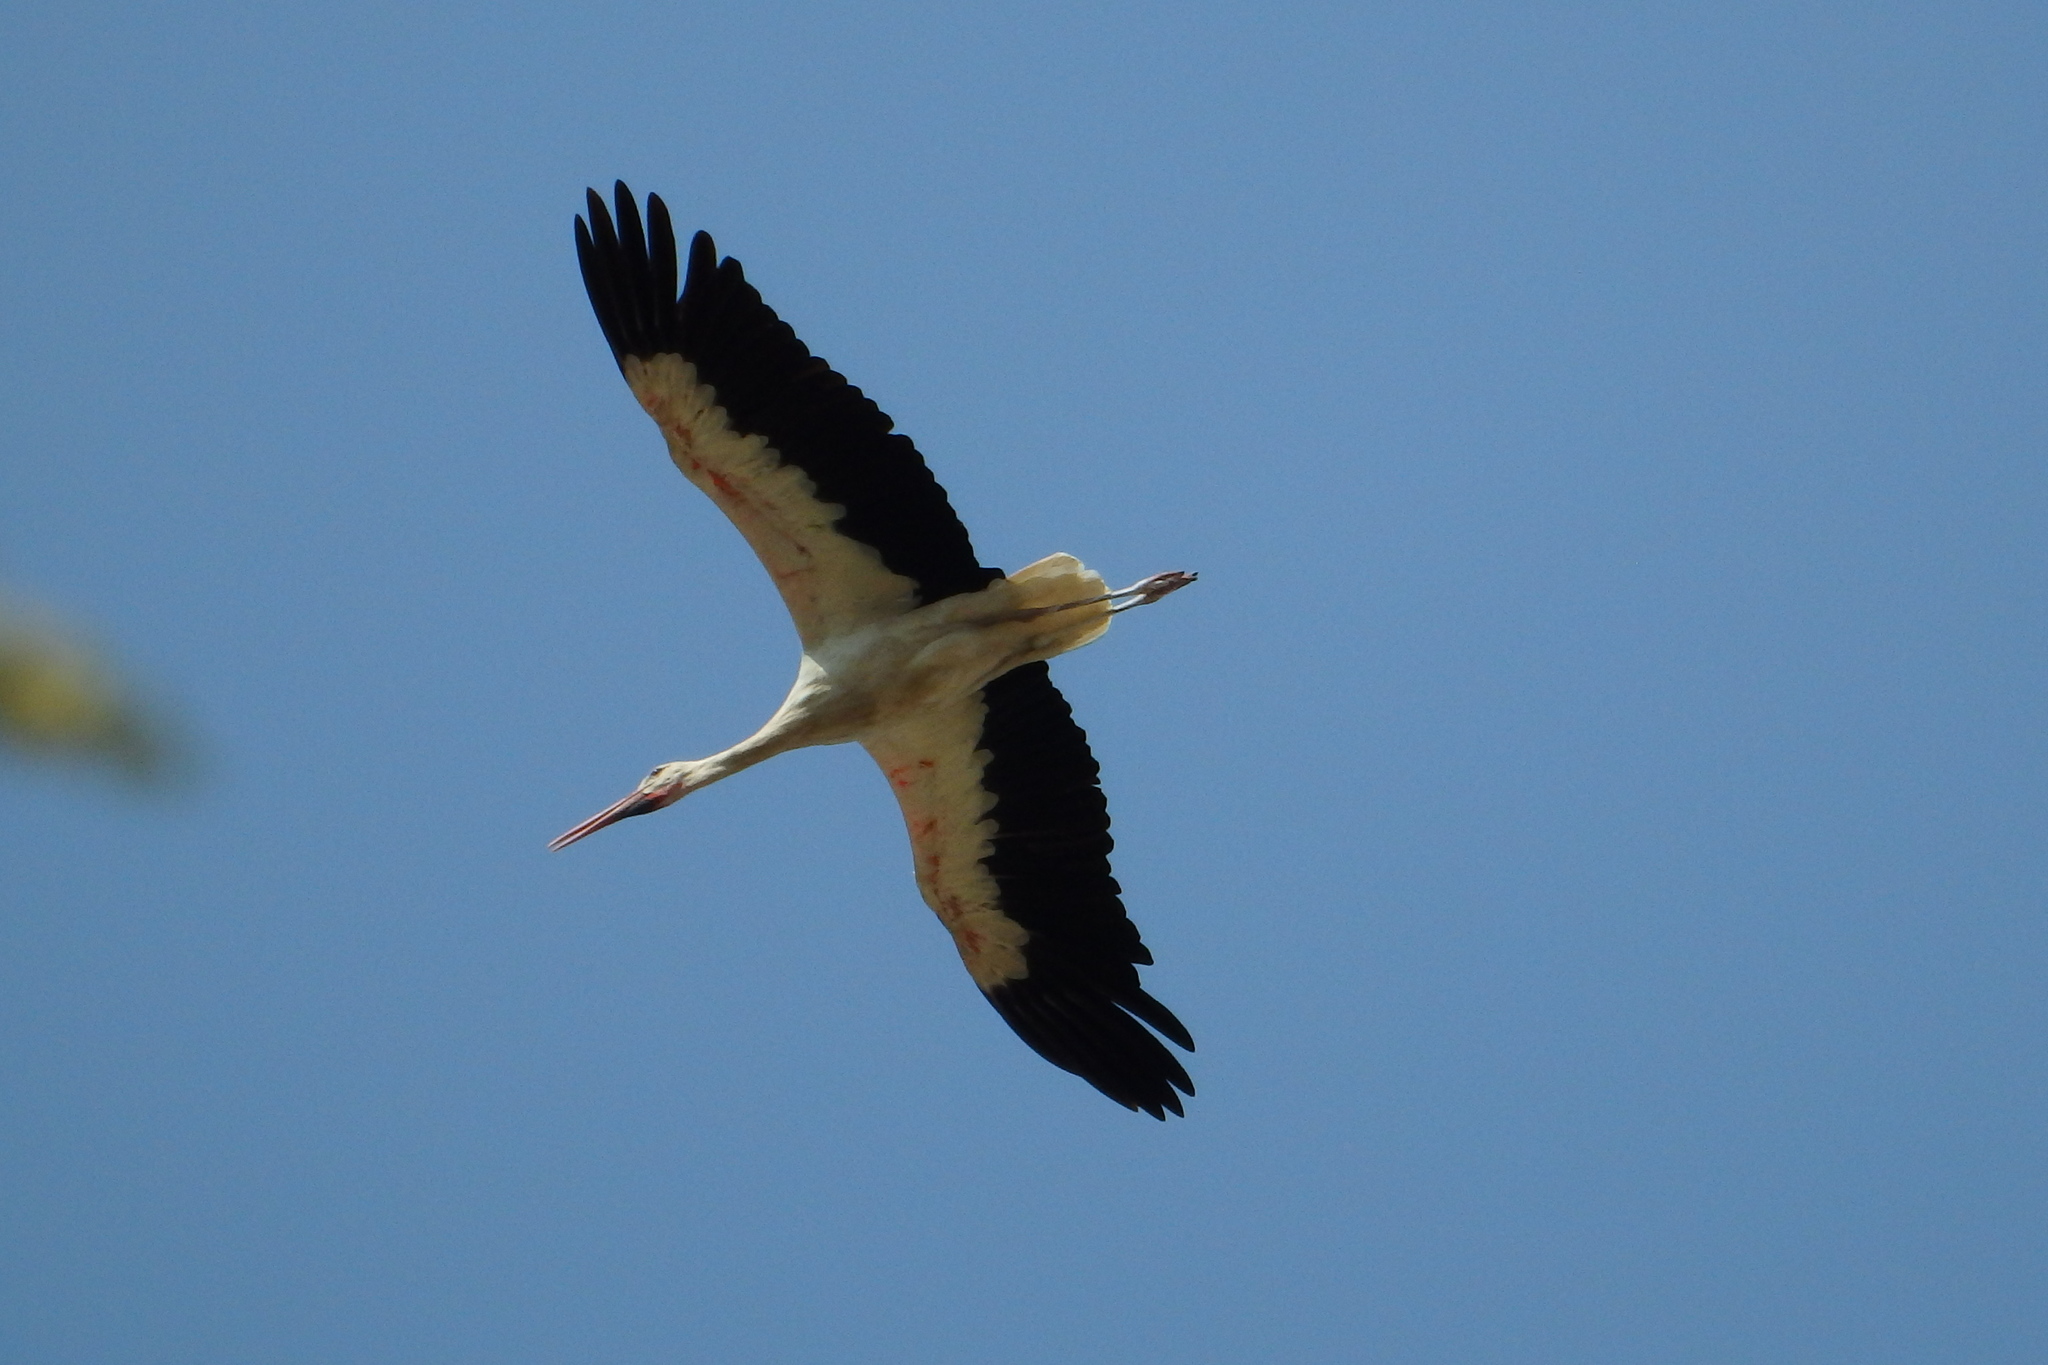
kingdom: Animalia
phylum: Chordata
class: Aves
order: Ciconiiformes
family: Ciconiidae
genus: Ciconia
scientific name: Ciconia ciconia
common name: White stork
